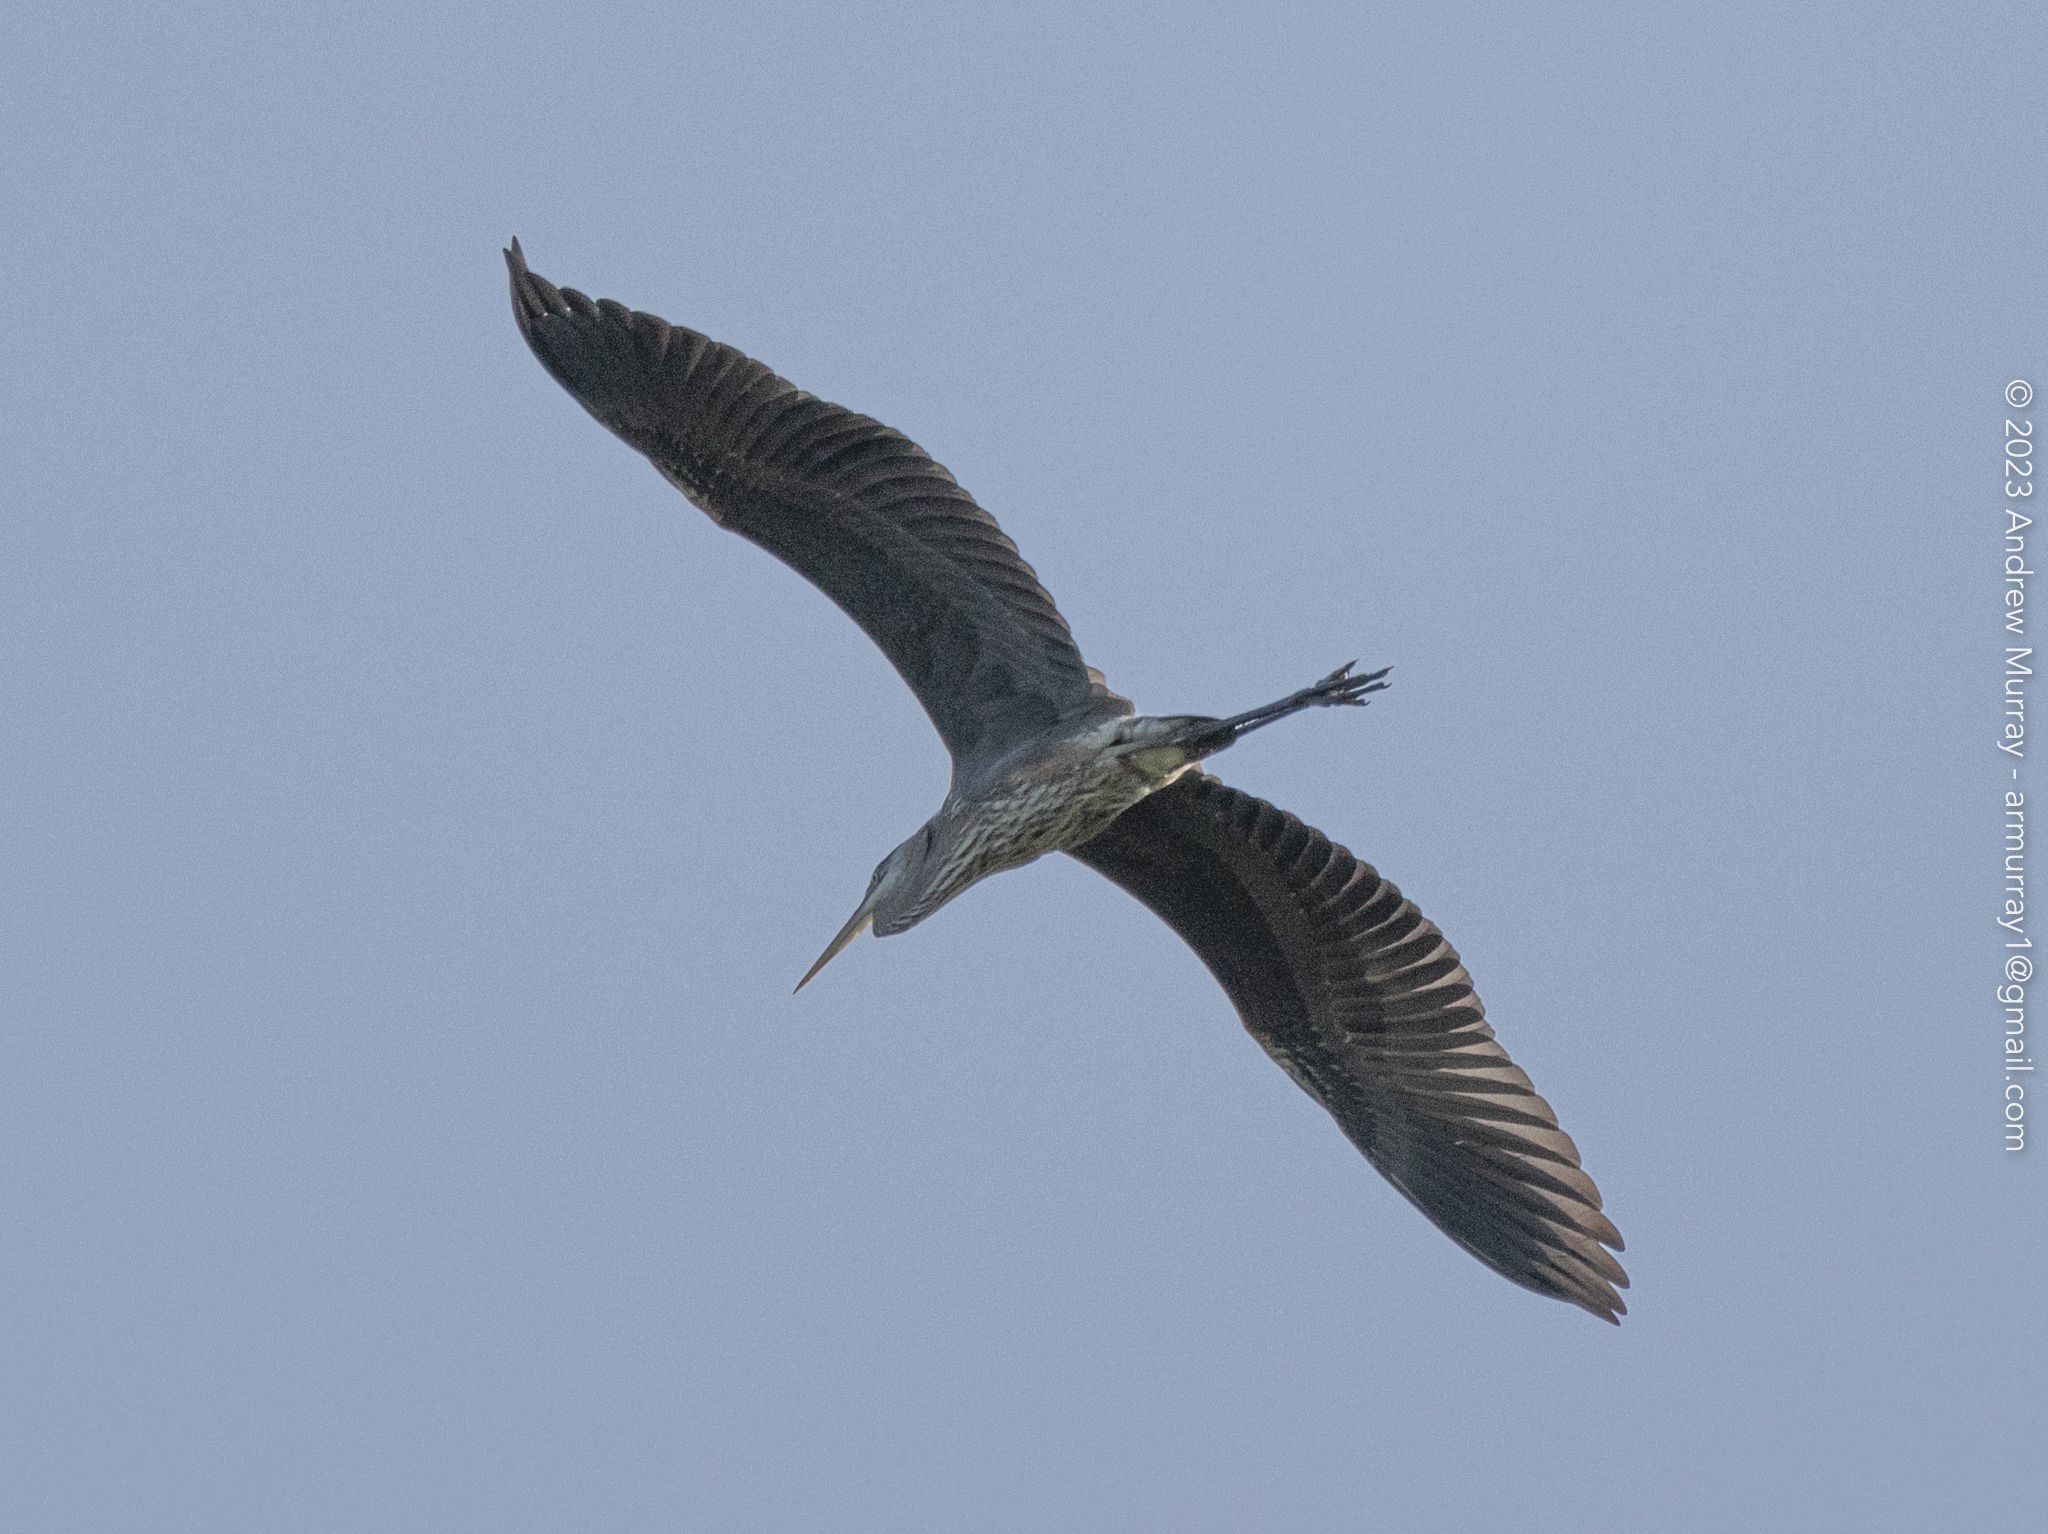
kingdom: Animalia
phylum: Chordata
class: Aves
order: Pelecaniformes
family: Ardeidae
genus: Ardea
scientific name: Ardea herodias
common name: Great blue heron
